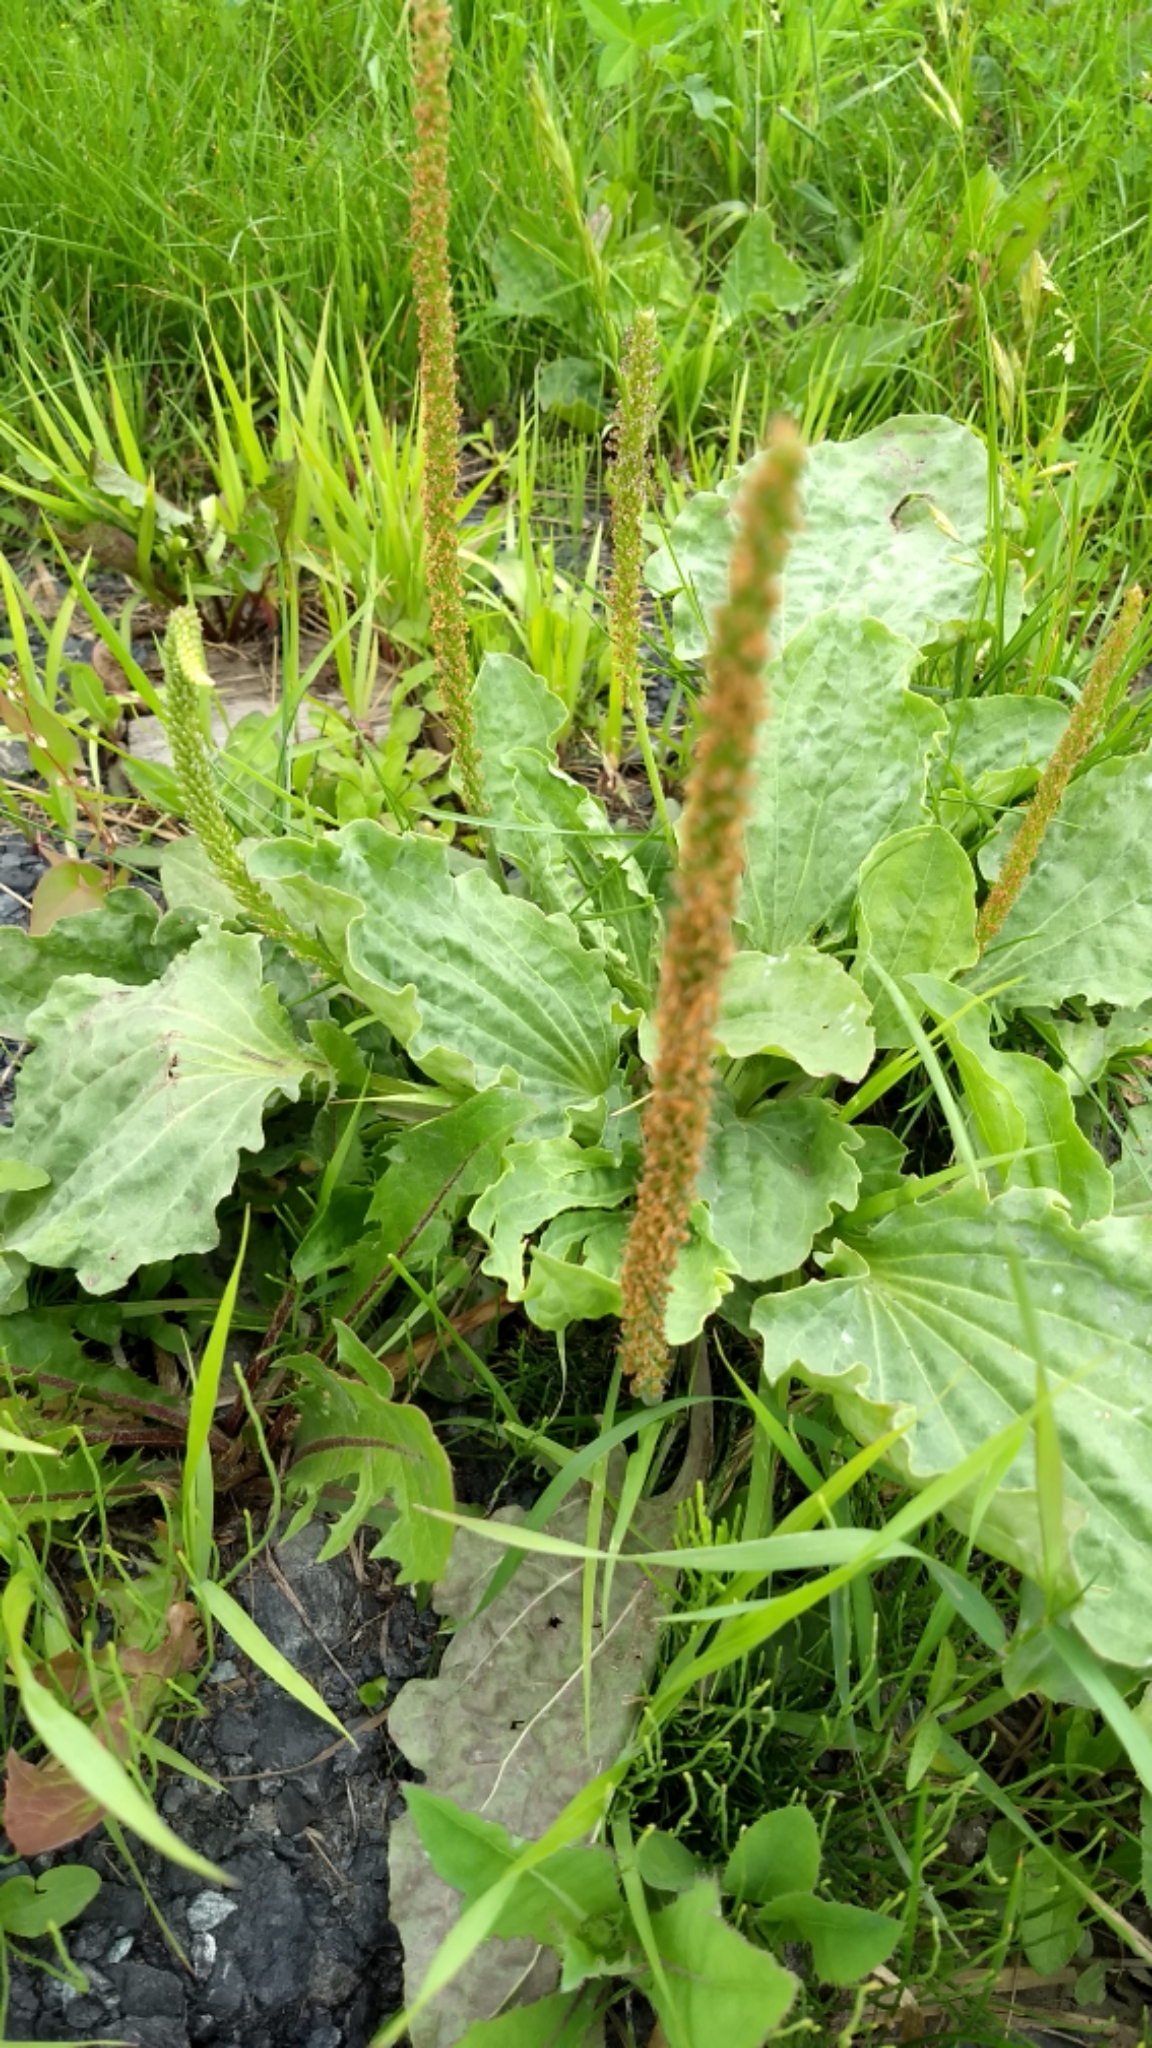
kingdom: Plantae
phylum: Tracheophyta
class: Magnoliopsida
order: Lamiales
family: Plantaginaceae
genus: Plantago
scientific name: Plantago major
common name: Common plantain
